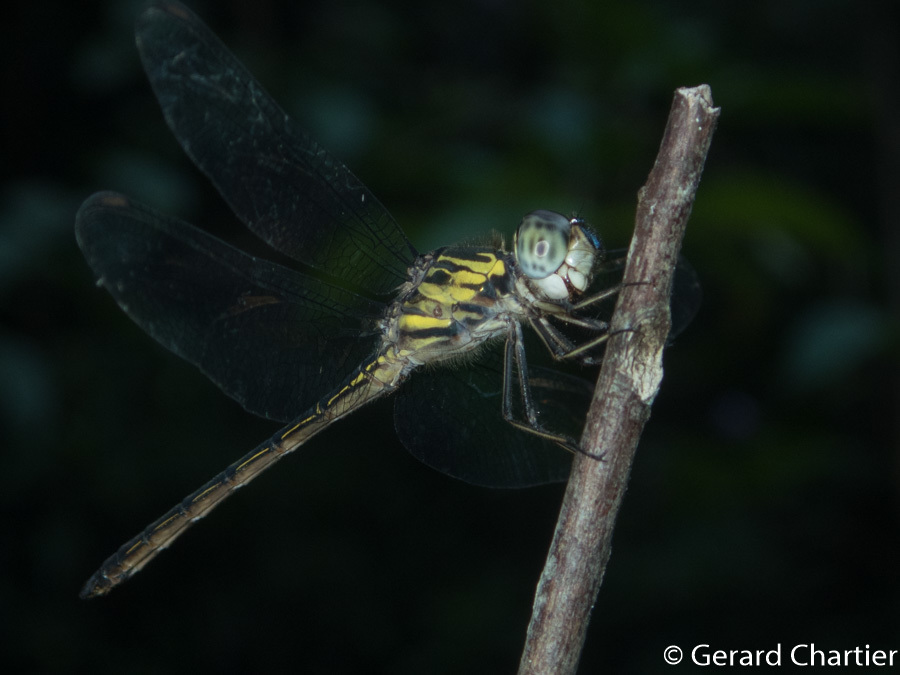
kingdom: Animalia
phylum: Arthropoda
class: Insecta
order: Odonata
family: Libellulidae
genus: Cratilla
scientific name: Cratilla lineata
